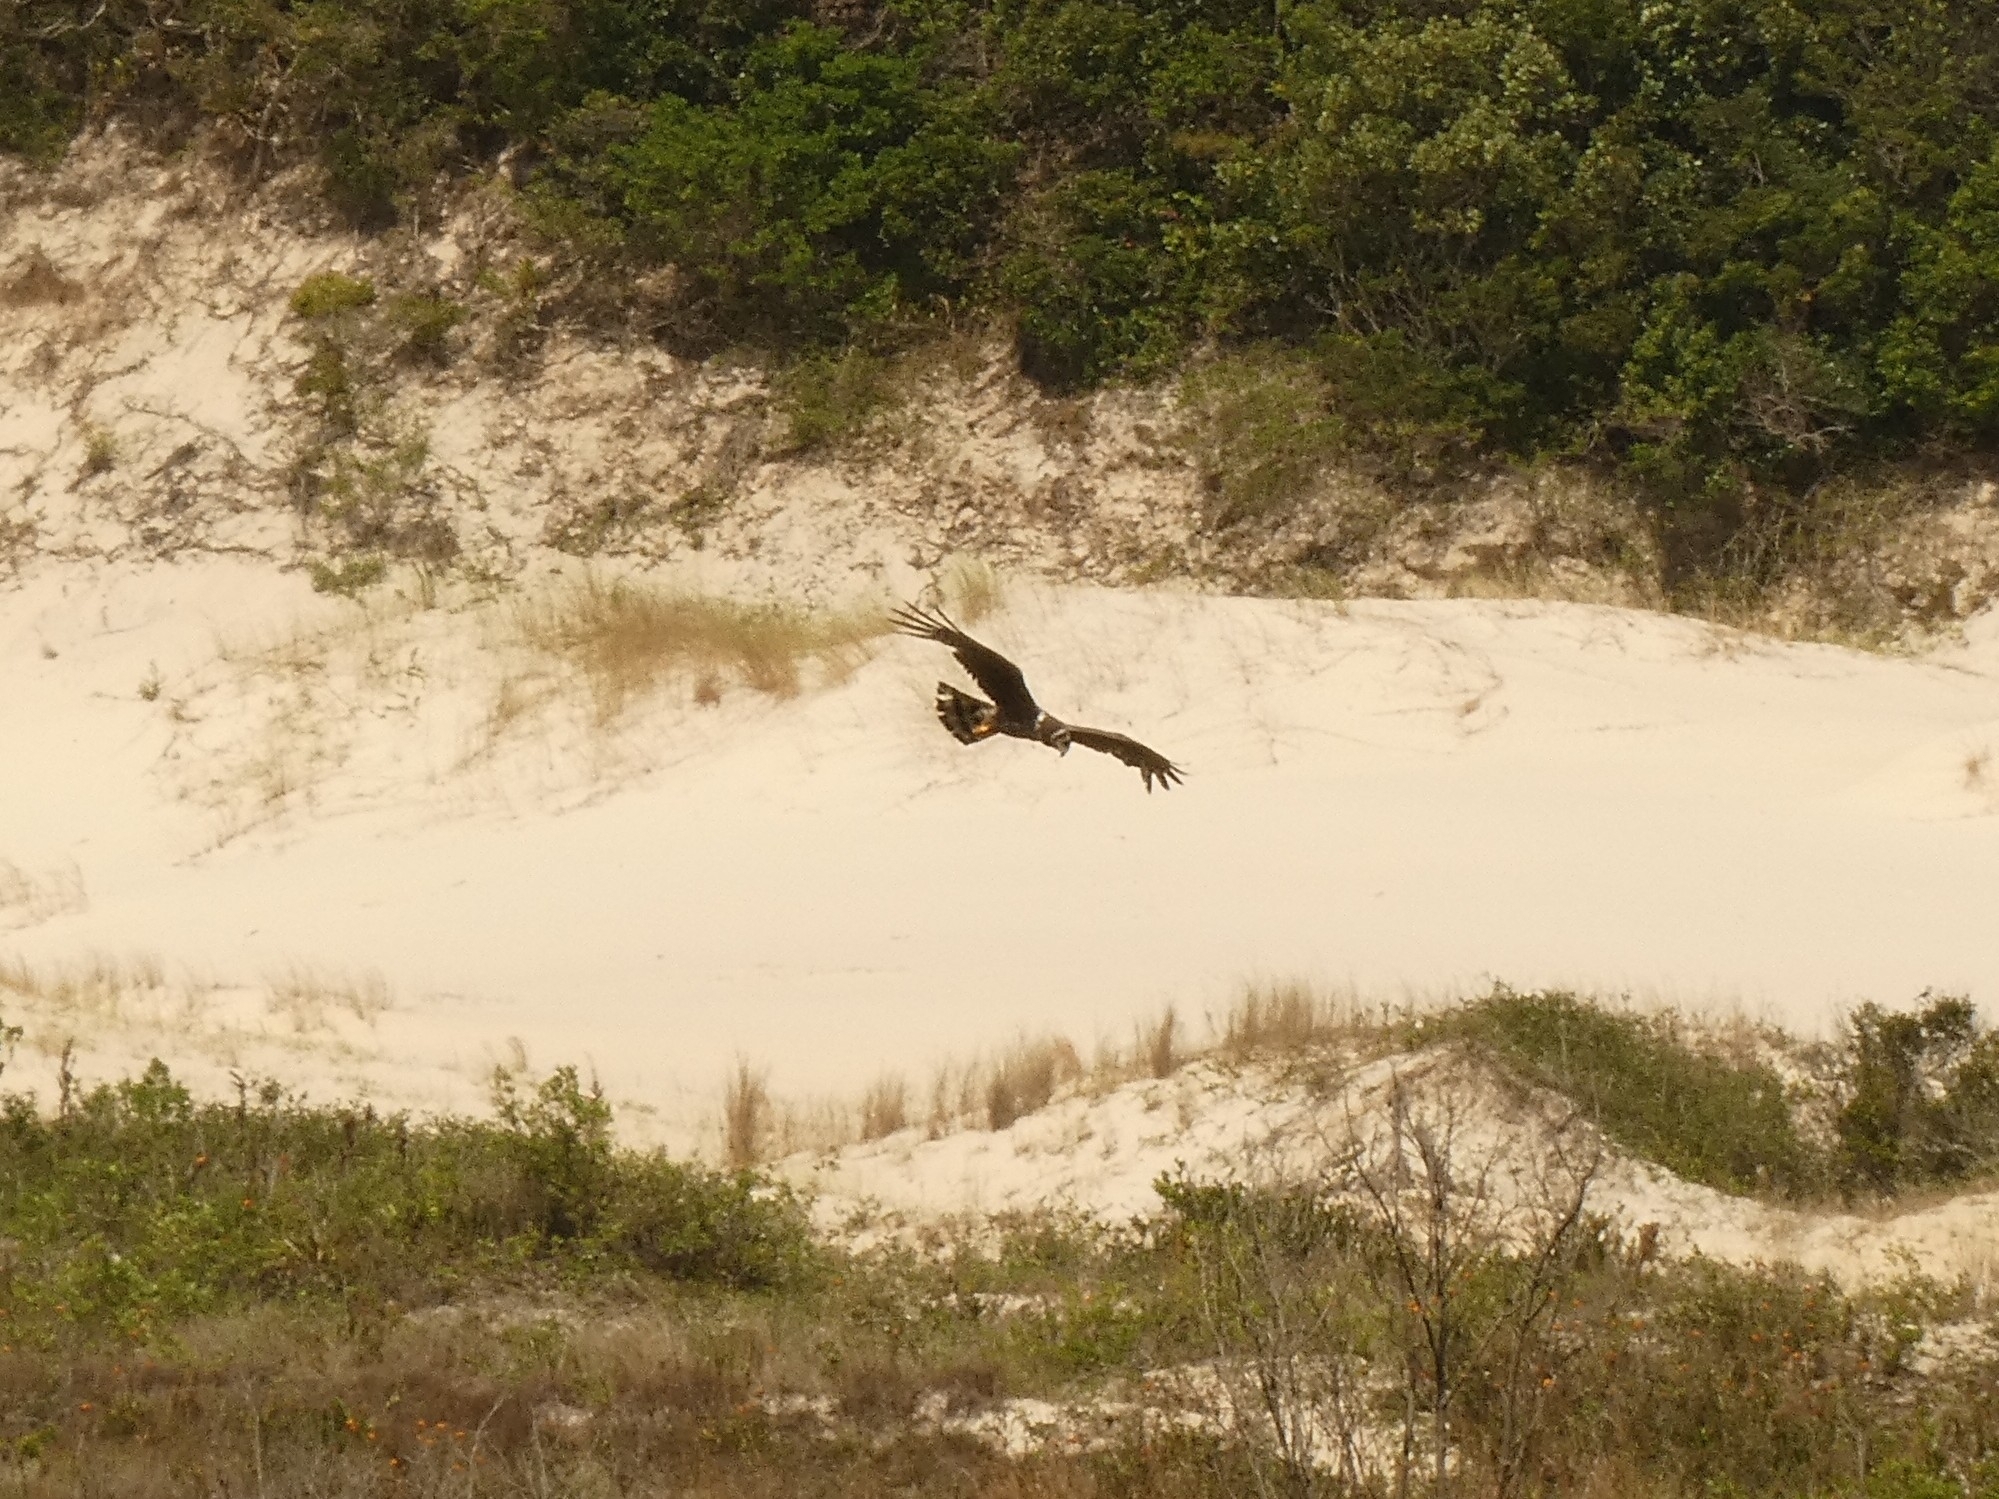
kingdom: Animalia
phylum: Chordata
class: Aves
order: Accipitriformes
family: Accipitridae
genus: Circus
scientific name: Circus buffoni
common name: Long-winged harrier
